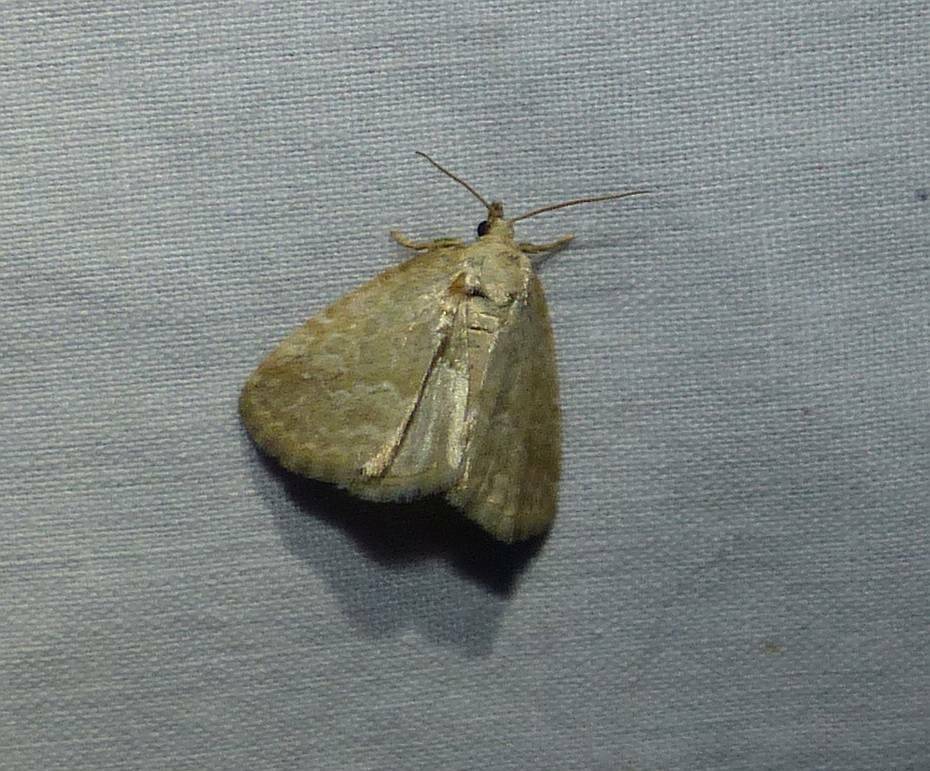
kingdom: Animalia
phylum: Arthropoda
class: Insecta
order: Lepidoptera
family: Noctuidae
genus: Protodeltote
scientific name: Protodeltote albidula
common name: Pale glyph
